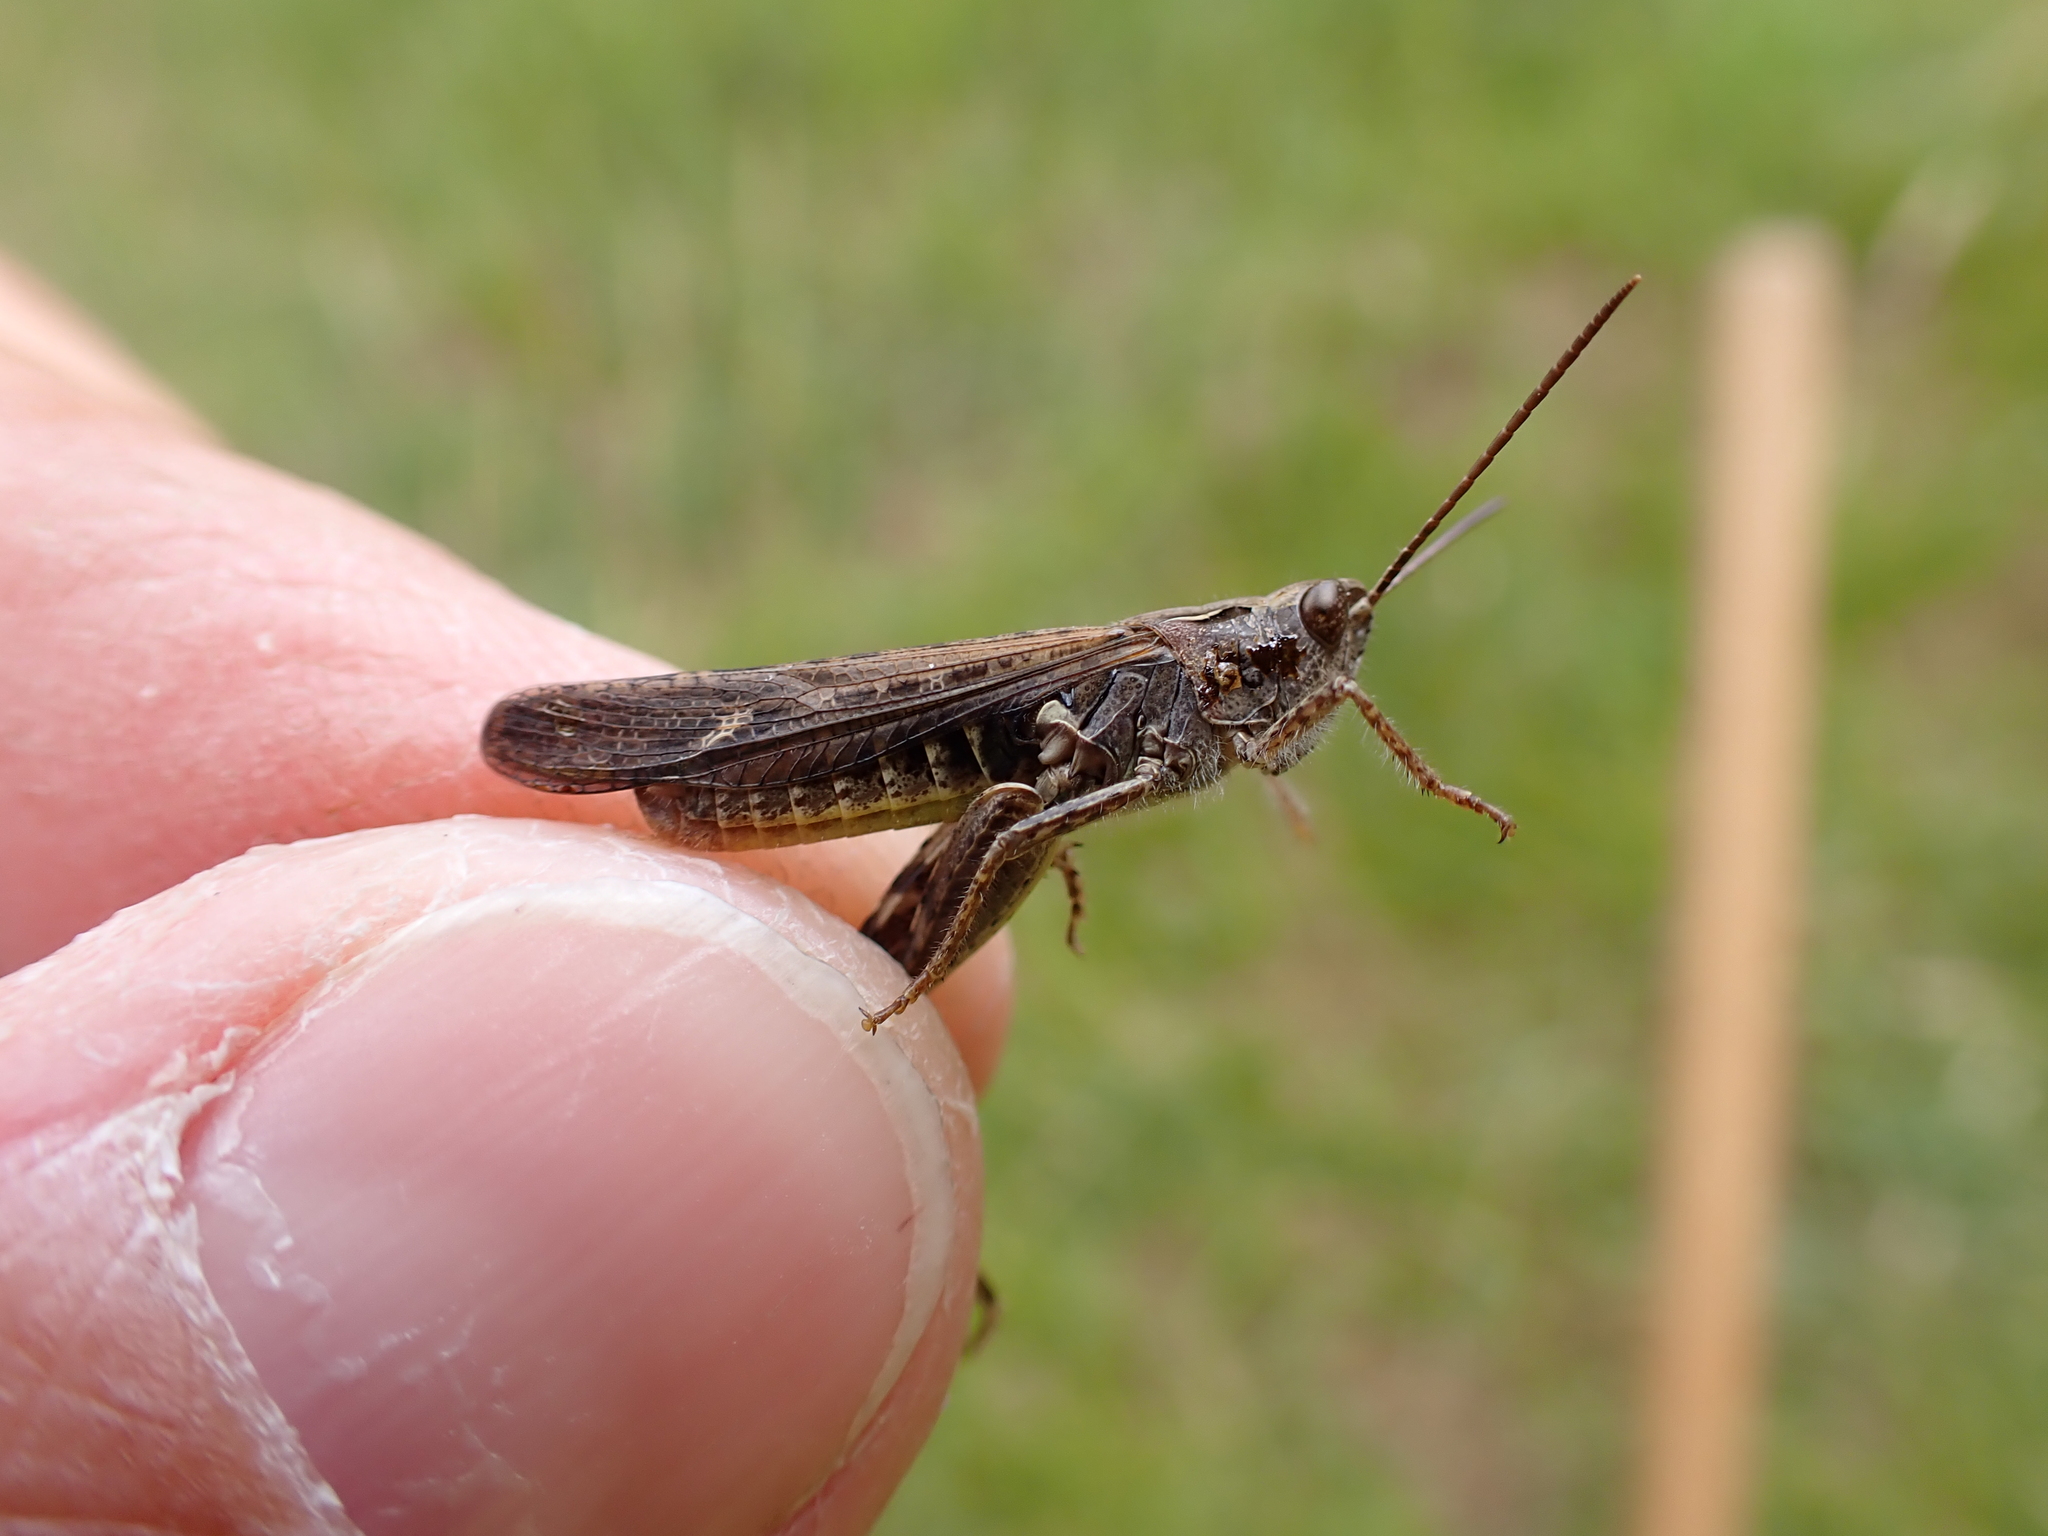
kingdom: Animalia
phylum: Arthropoda
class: Insecta
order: Orthoptera
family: Acrididae
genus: Chorthippus
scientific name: Chorthippus biguttulus
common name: Bow-winged grasshopper
